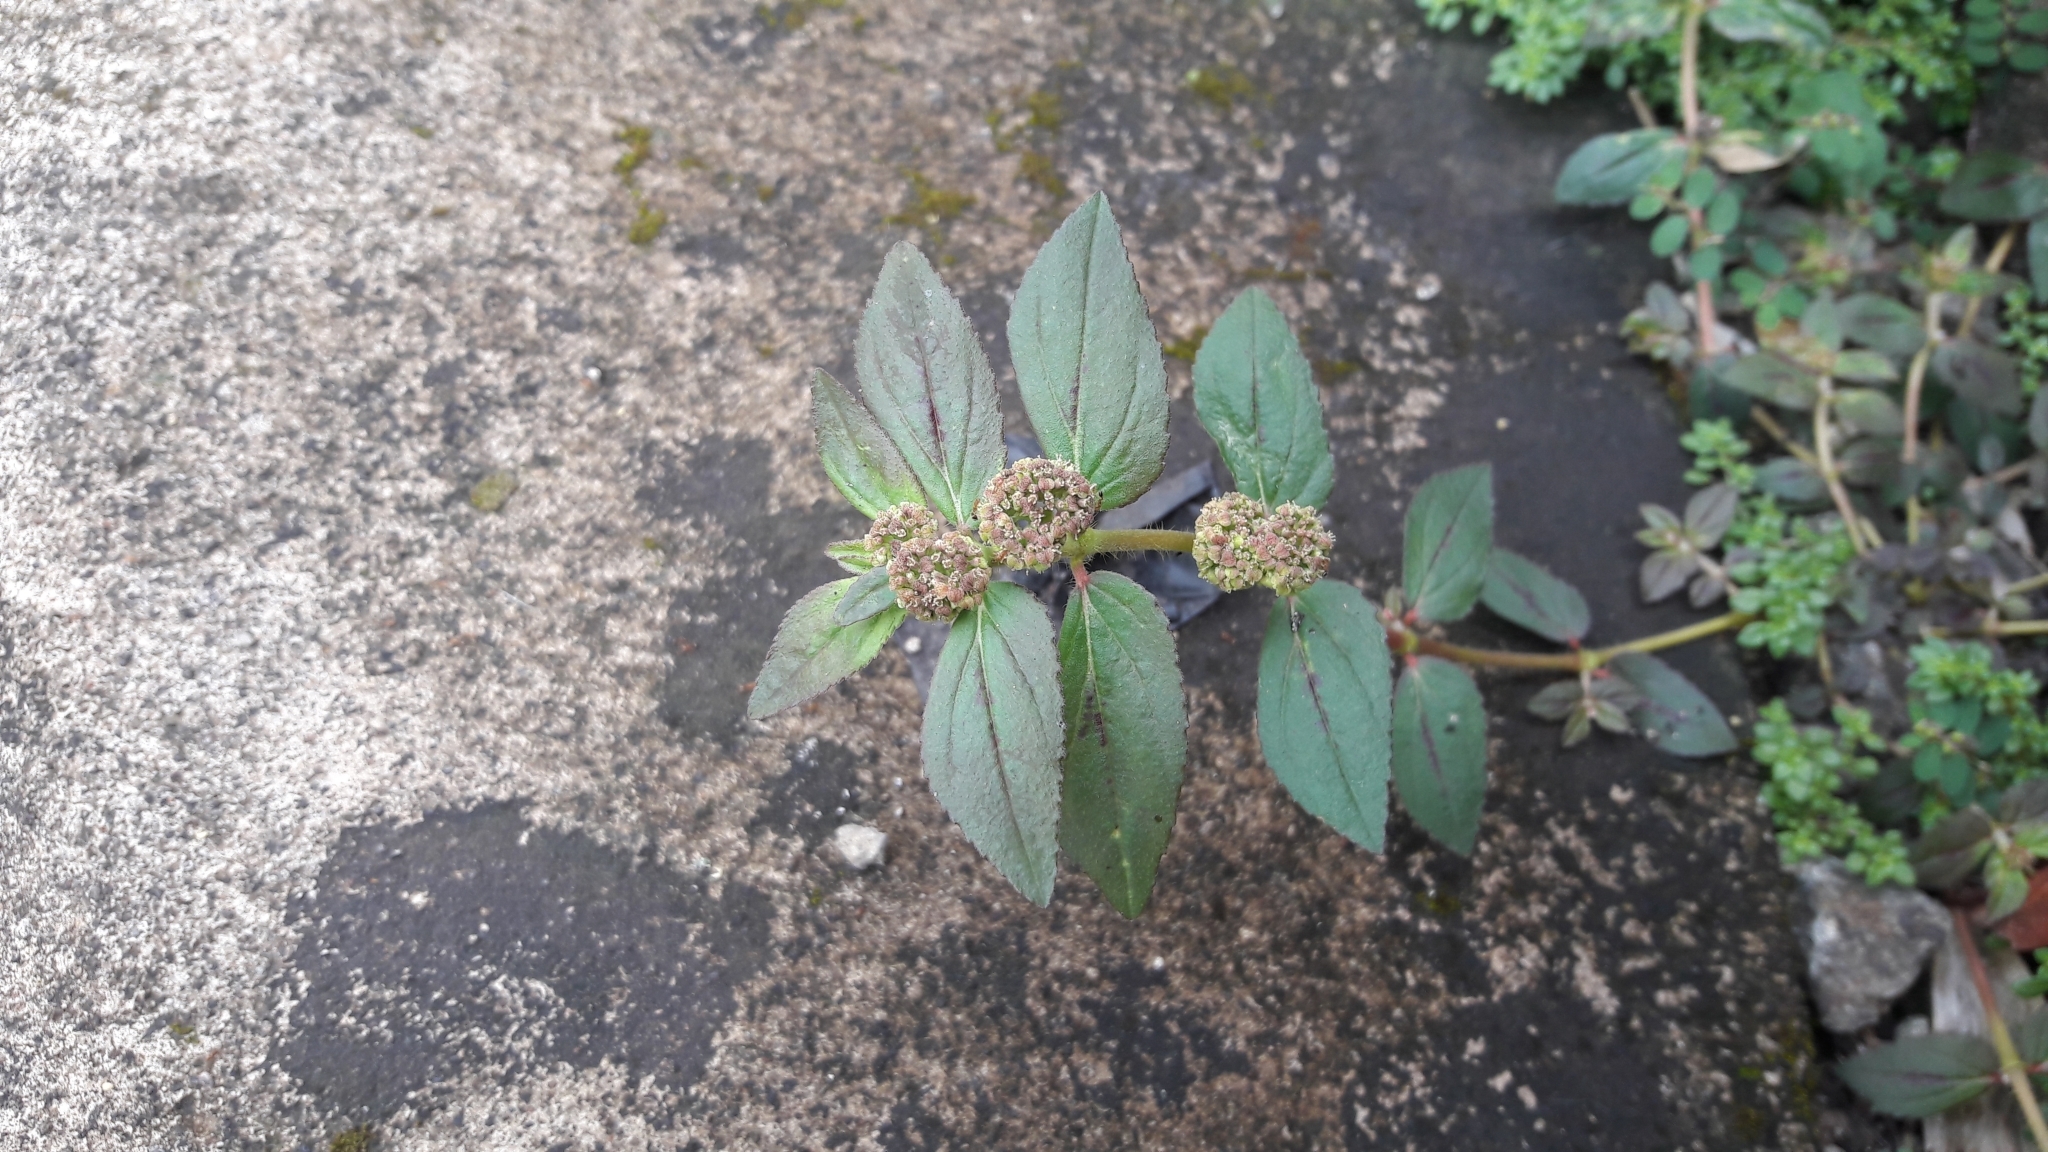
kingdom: Plantae
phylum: Tracheophyta
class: Magnoliopsida
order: Malpighiales
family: Euphorbiaceae
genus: Euphorbia
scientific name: Euphorbia hirta
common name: Pillpod sandmat
